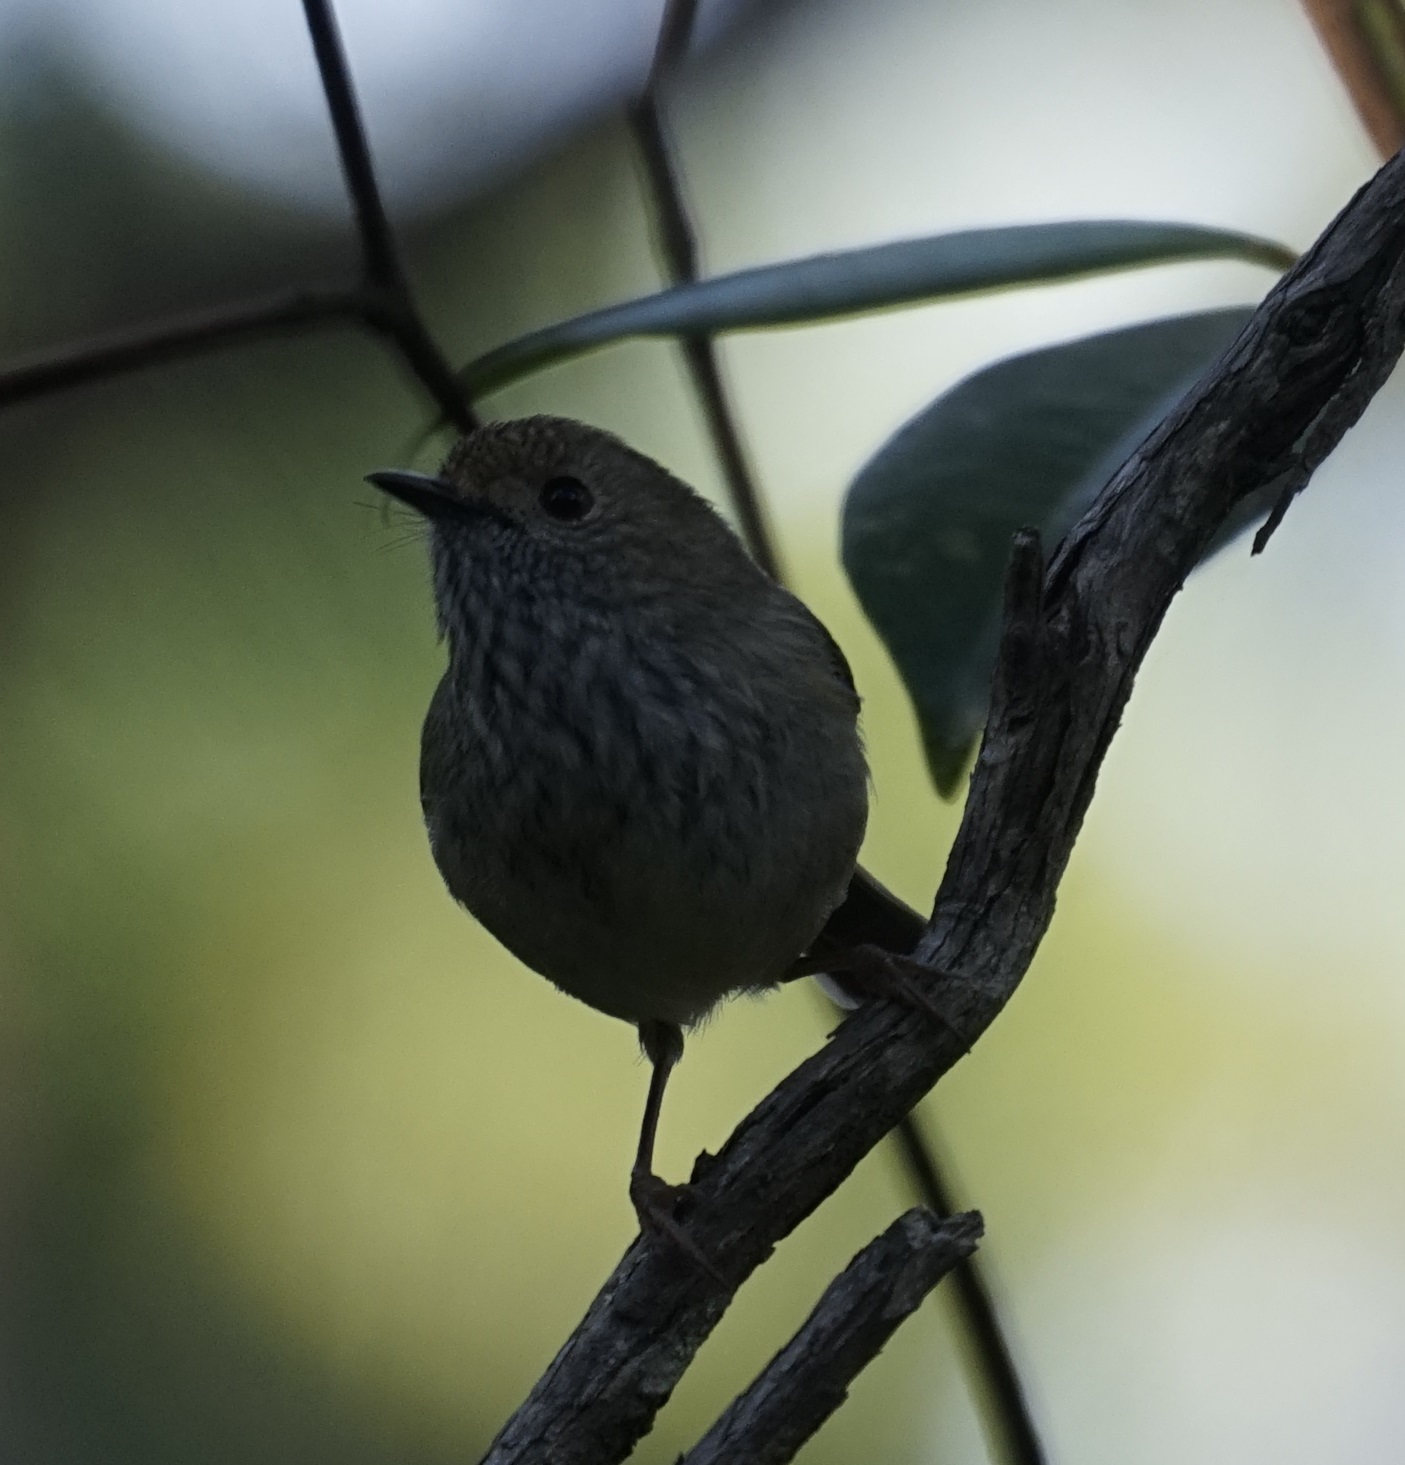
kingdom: Animalia
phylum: Chordata
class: Aves
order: Passeriformes
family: Acanthizidae
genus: Acanthiza
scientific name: Acanthiza pusilla
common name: Brown thornbill
